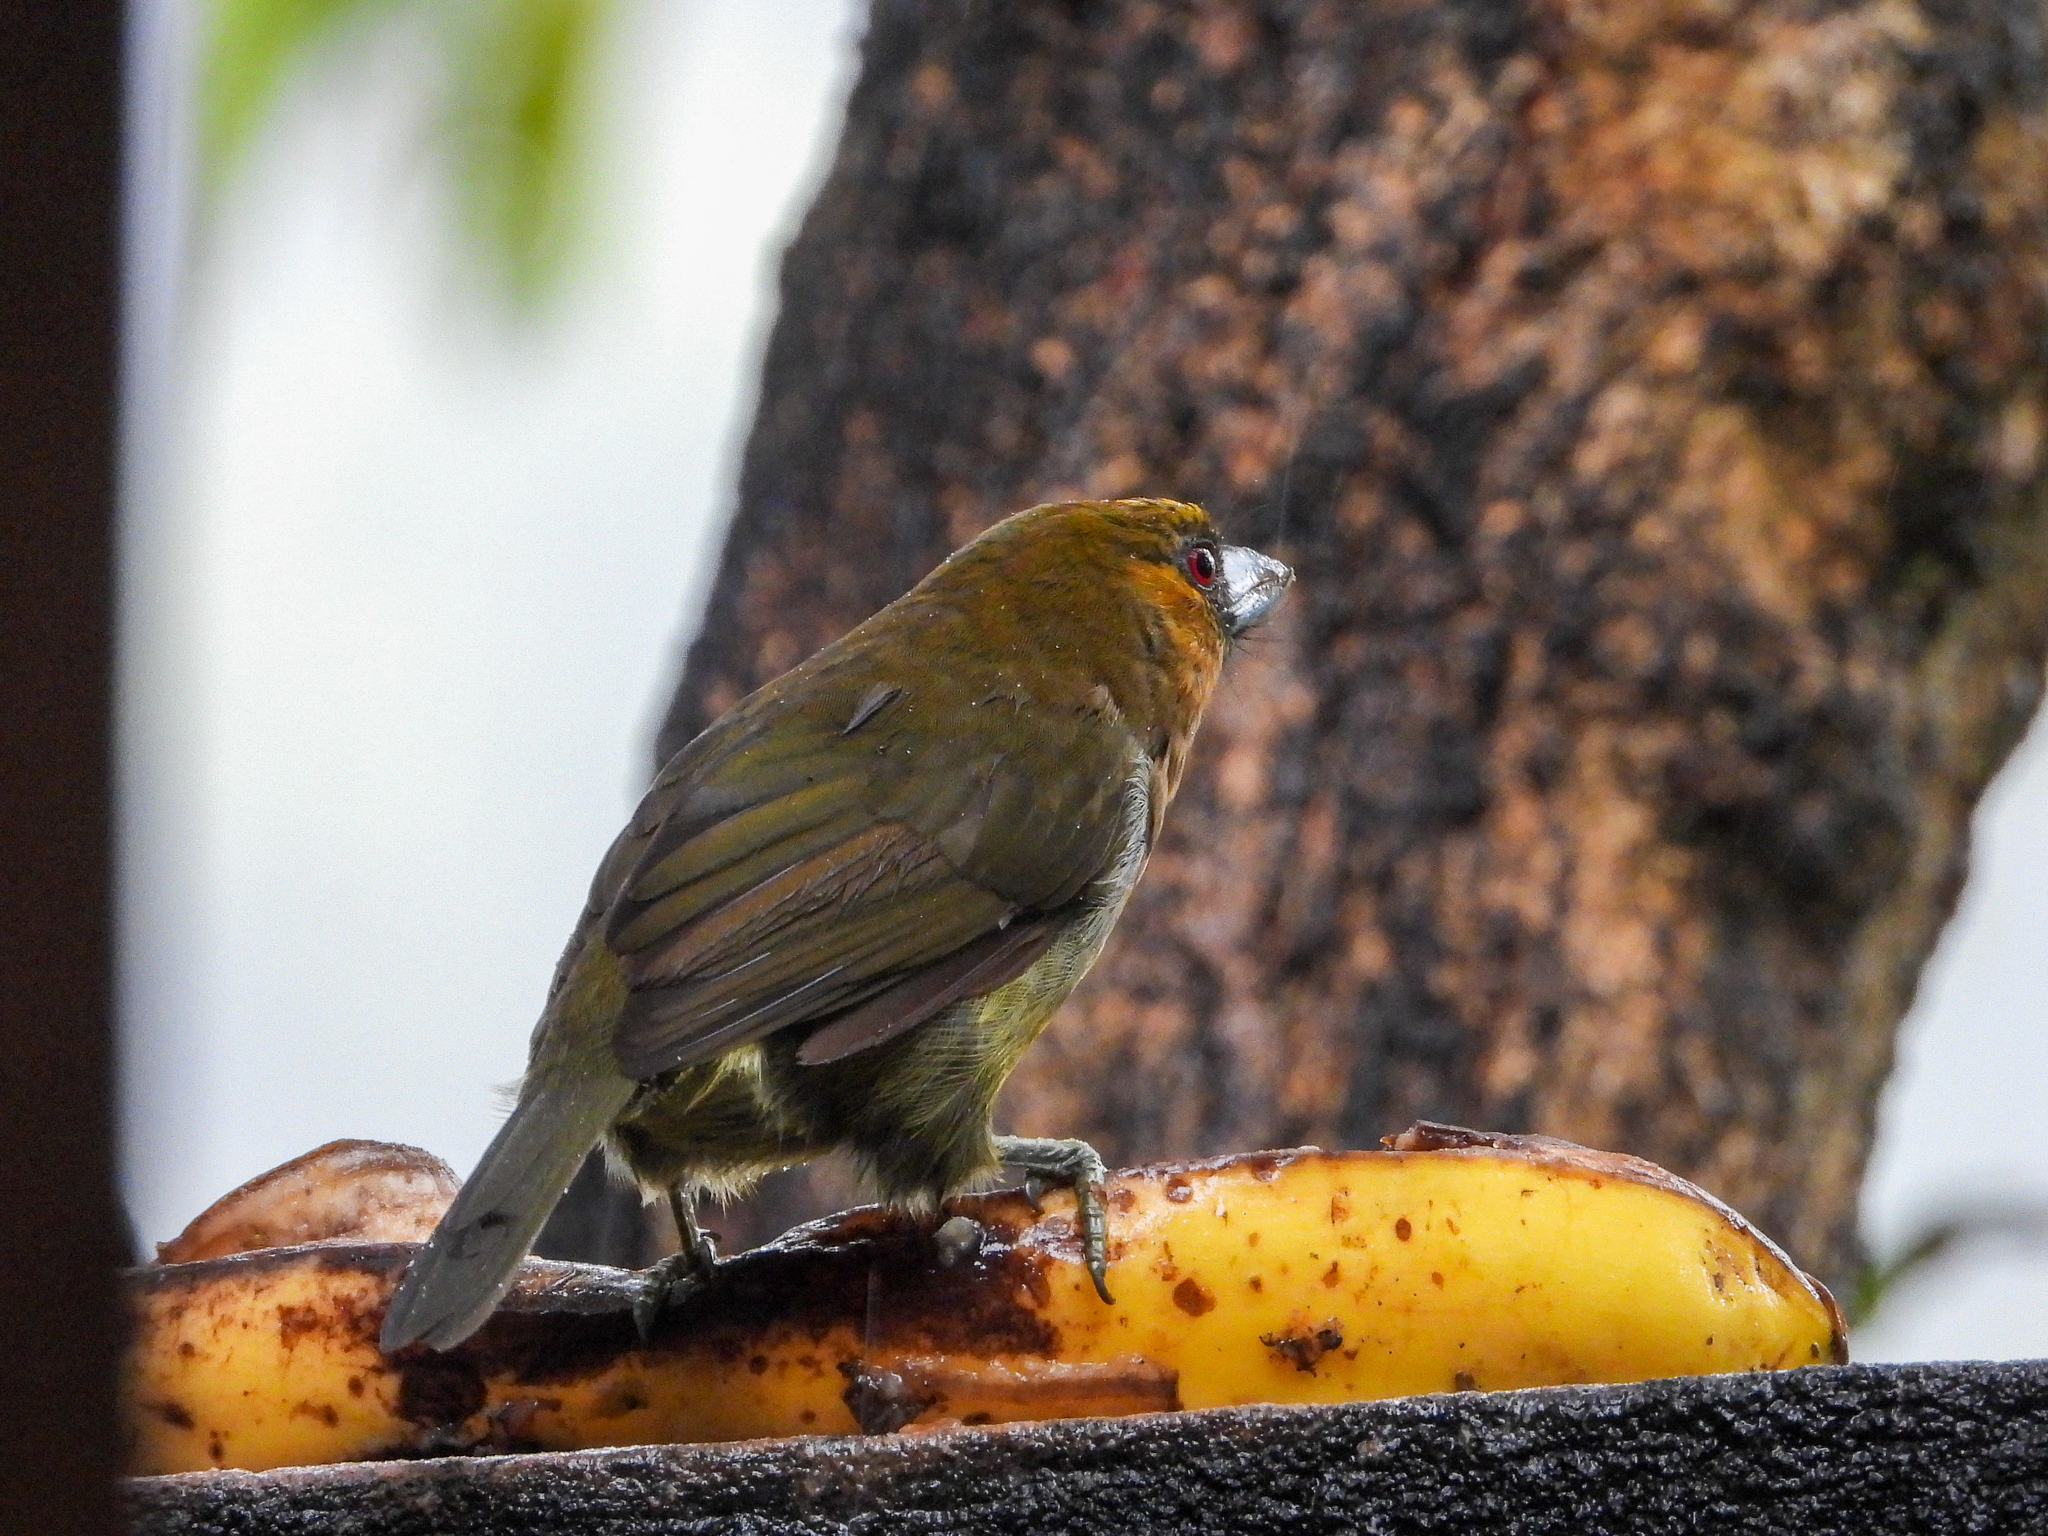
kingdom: Animalia
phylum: Chordata
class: Aves
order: Piciformes
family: Semnornithidae
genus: Semnornis
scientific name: Semnornis frantzii
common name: Prong-billed barbet
